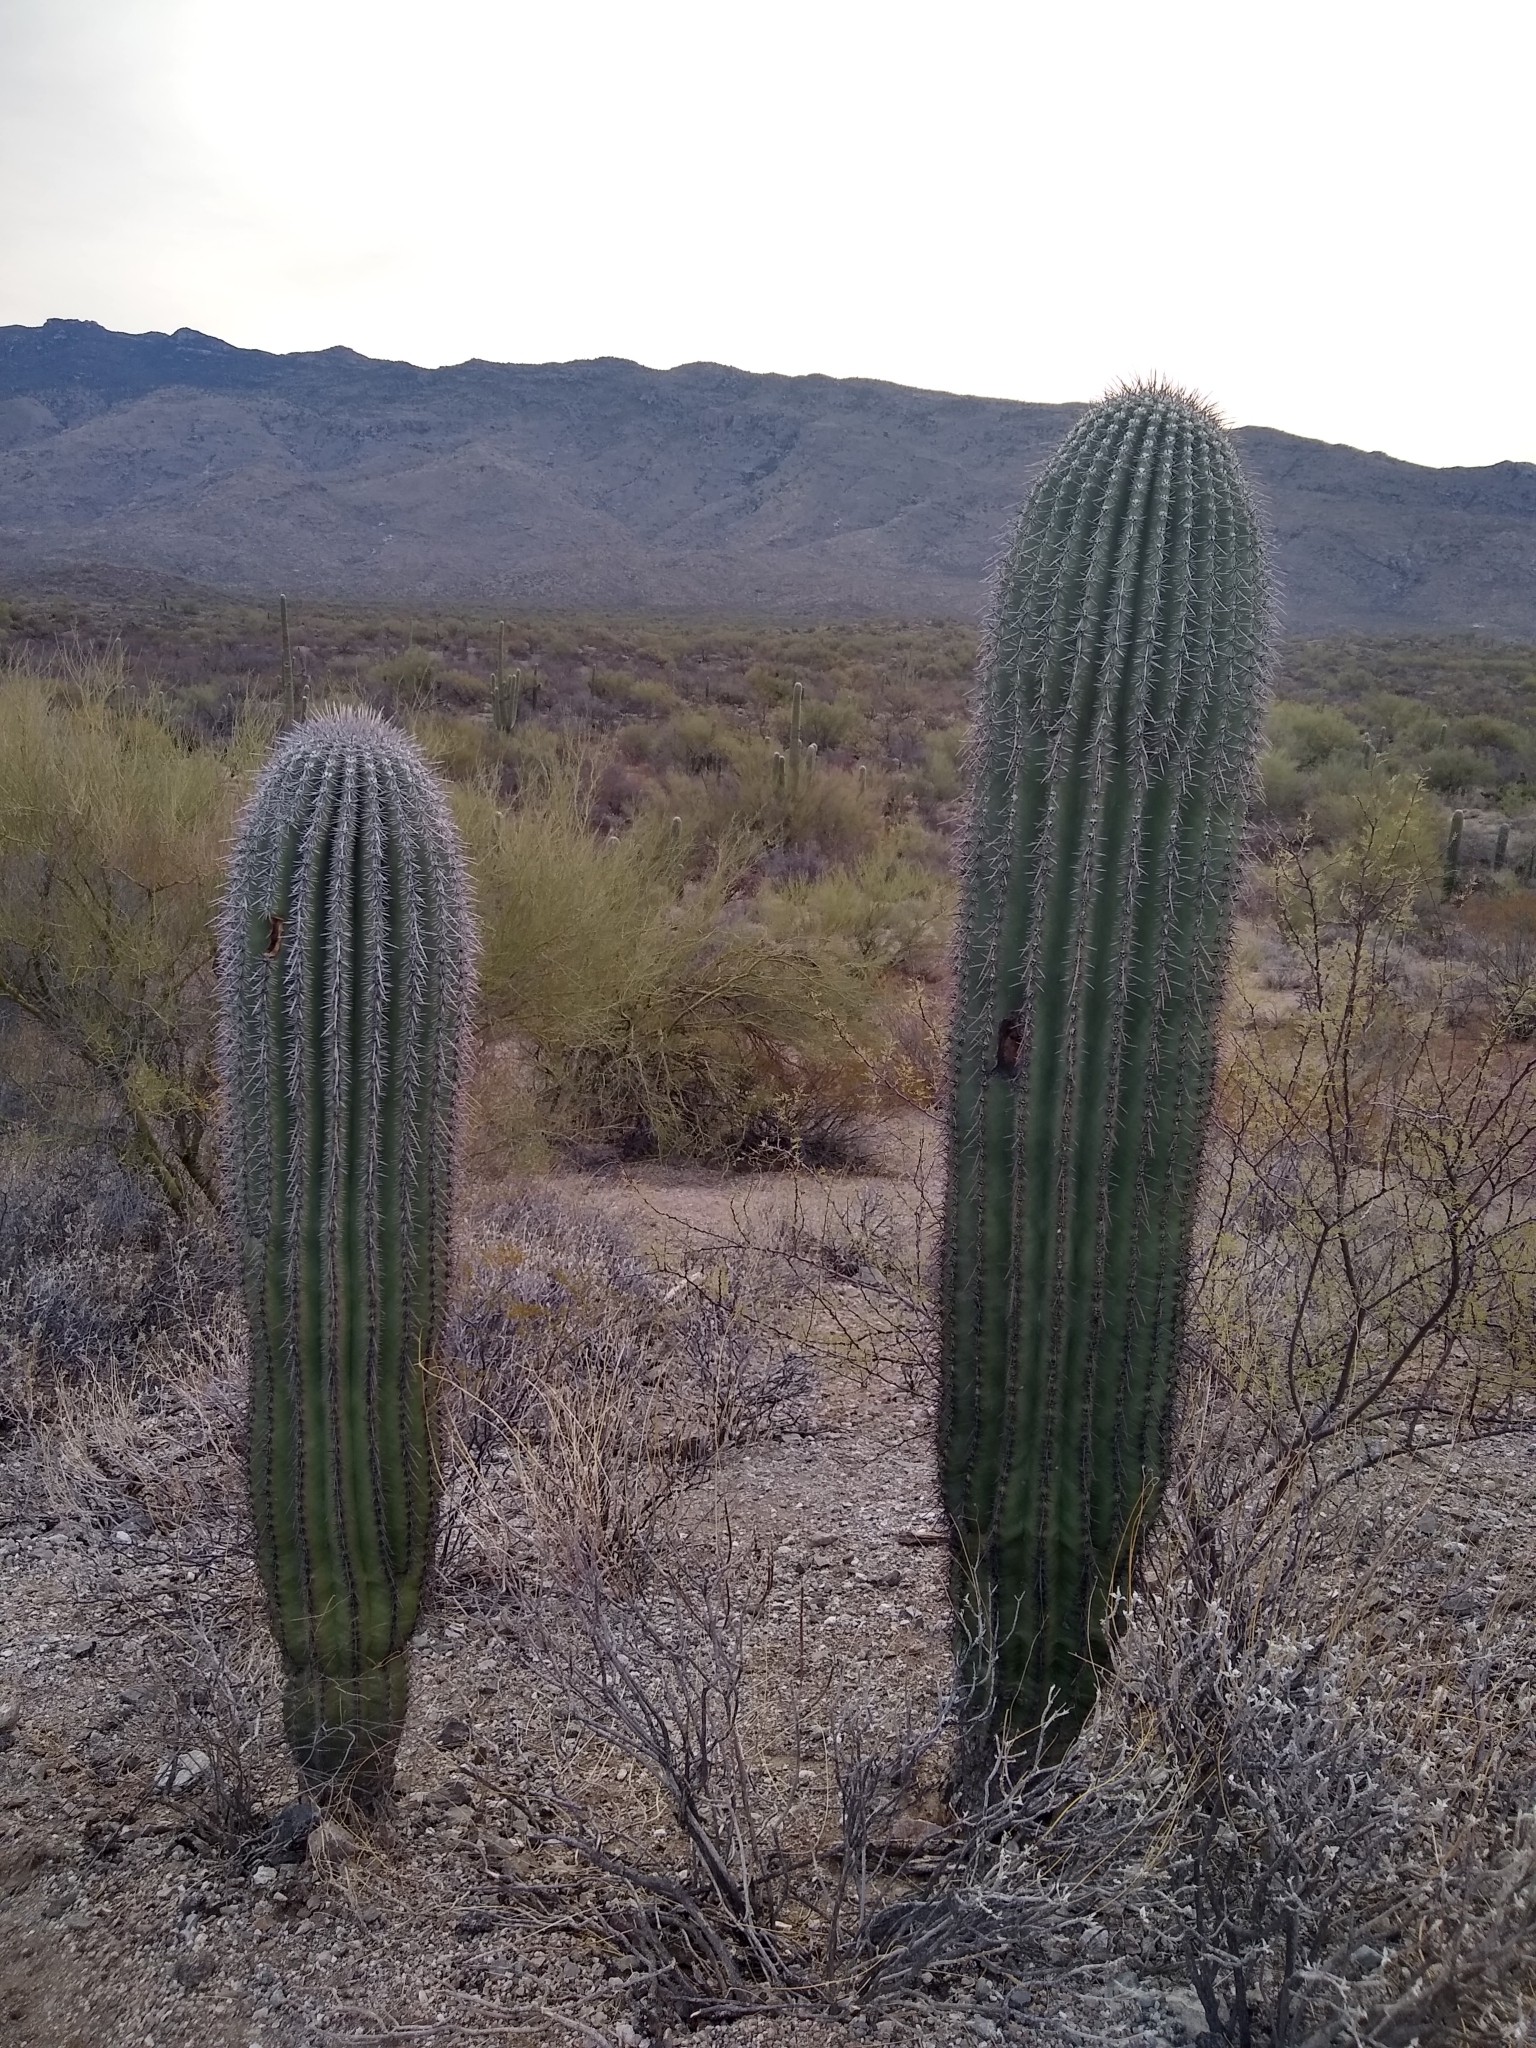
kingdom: Plantae
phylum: Tracheophyta
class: Magnoliopsida
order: Caryophyllales
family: Cactaceae
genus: Carnegiea
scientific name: Carnegiea gigantea
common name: Saguaro
